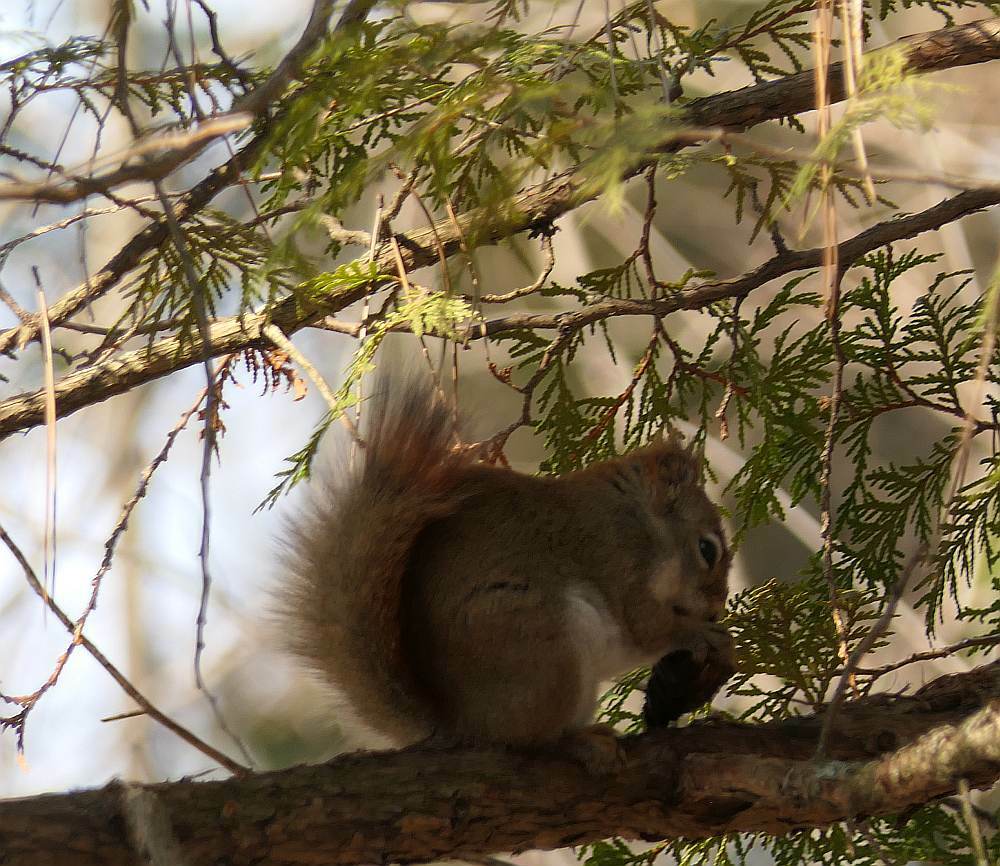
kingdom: Animalia
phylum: Chordata
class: Mammalia
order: Rodentia
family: Sciuridae
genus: Tamiasciurus
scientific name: Tamiasciurus hudsonicus
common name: Red squirrel
